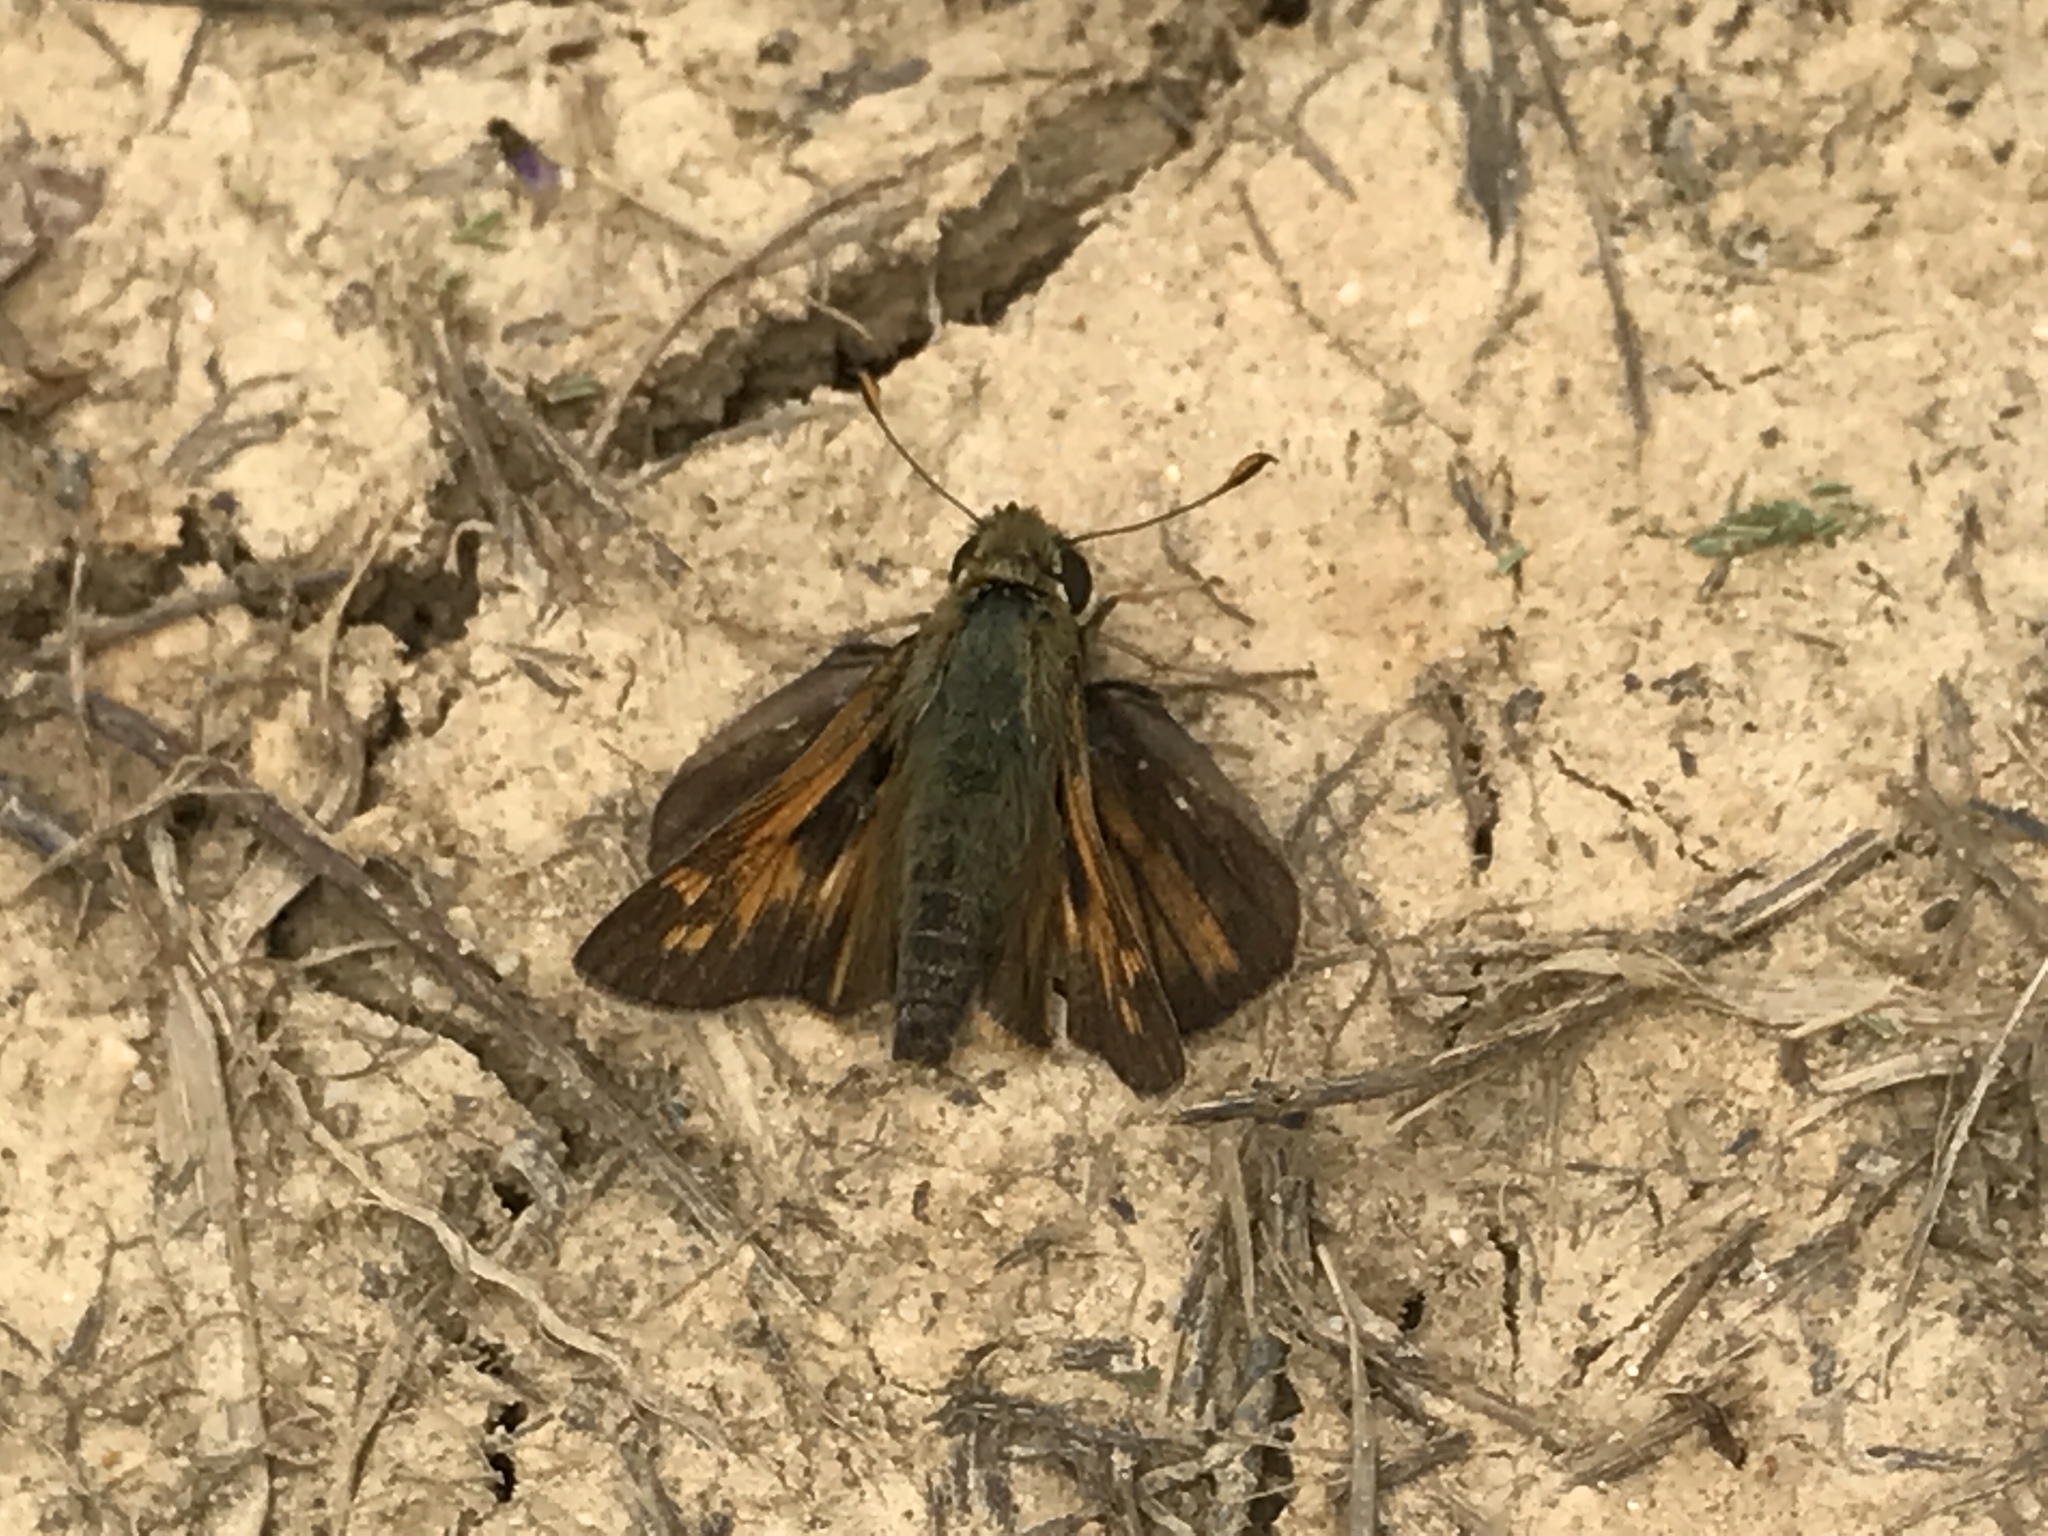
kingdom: Animalia
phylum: Arthropoda
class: Insecta
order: Lepidoptera
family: Hesperiidae
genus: Atalopedes
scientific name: Atalopedes
